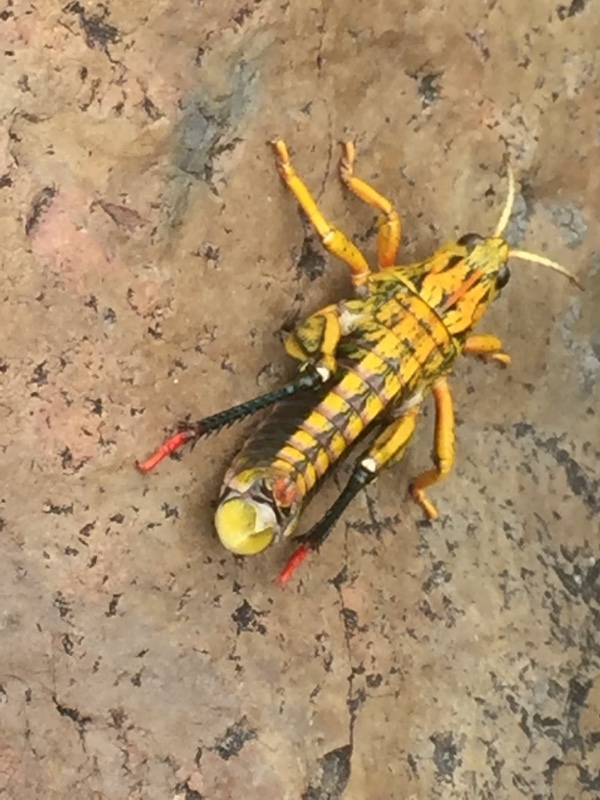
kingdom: Animalia
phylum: Arthropoda
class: Insecta
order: Orthoptera
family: Pamphagidae
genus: Nocaracris
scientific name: Nocaracris cyanipes
